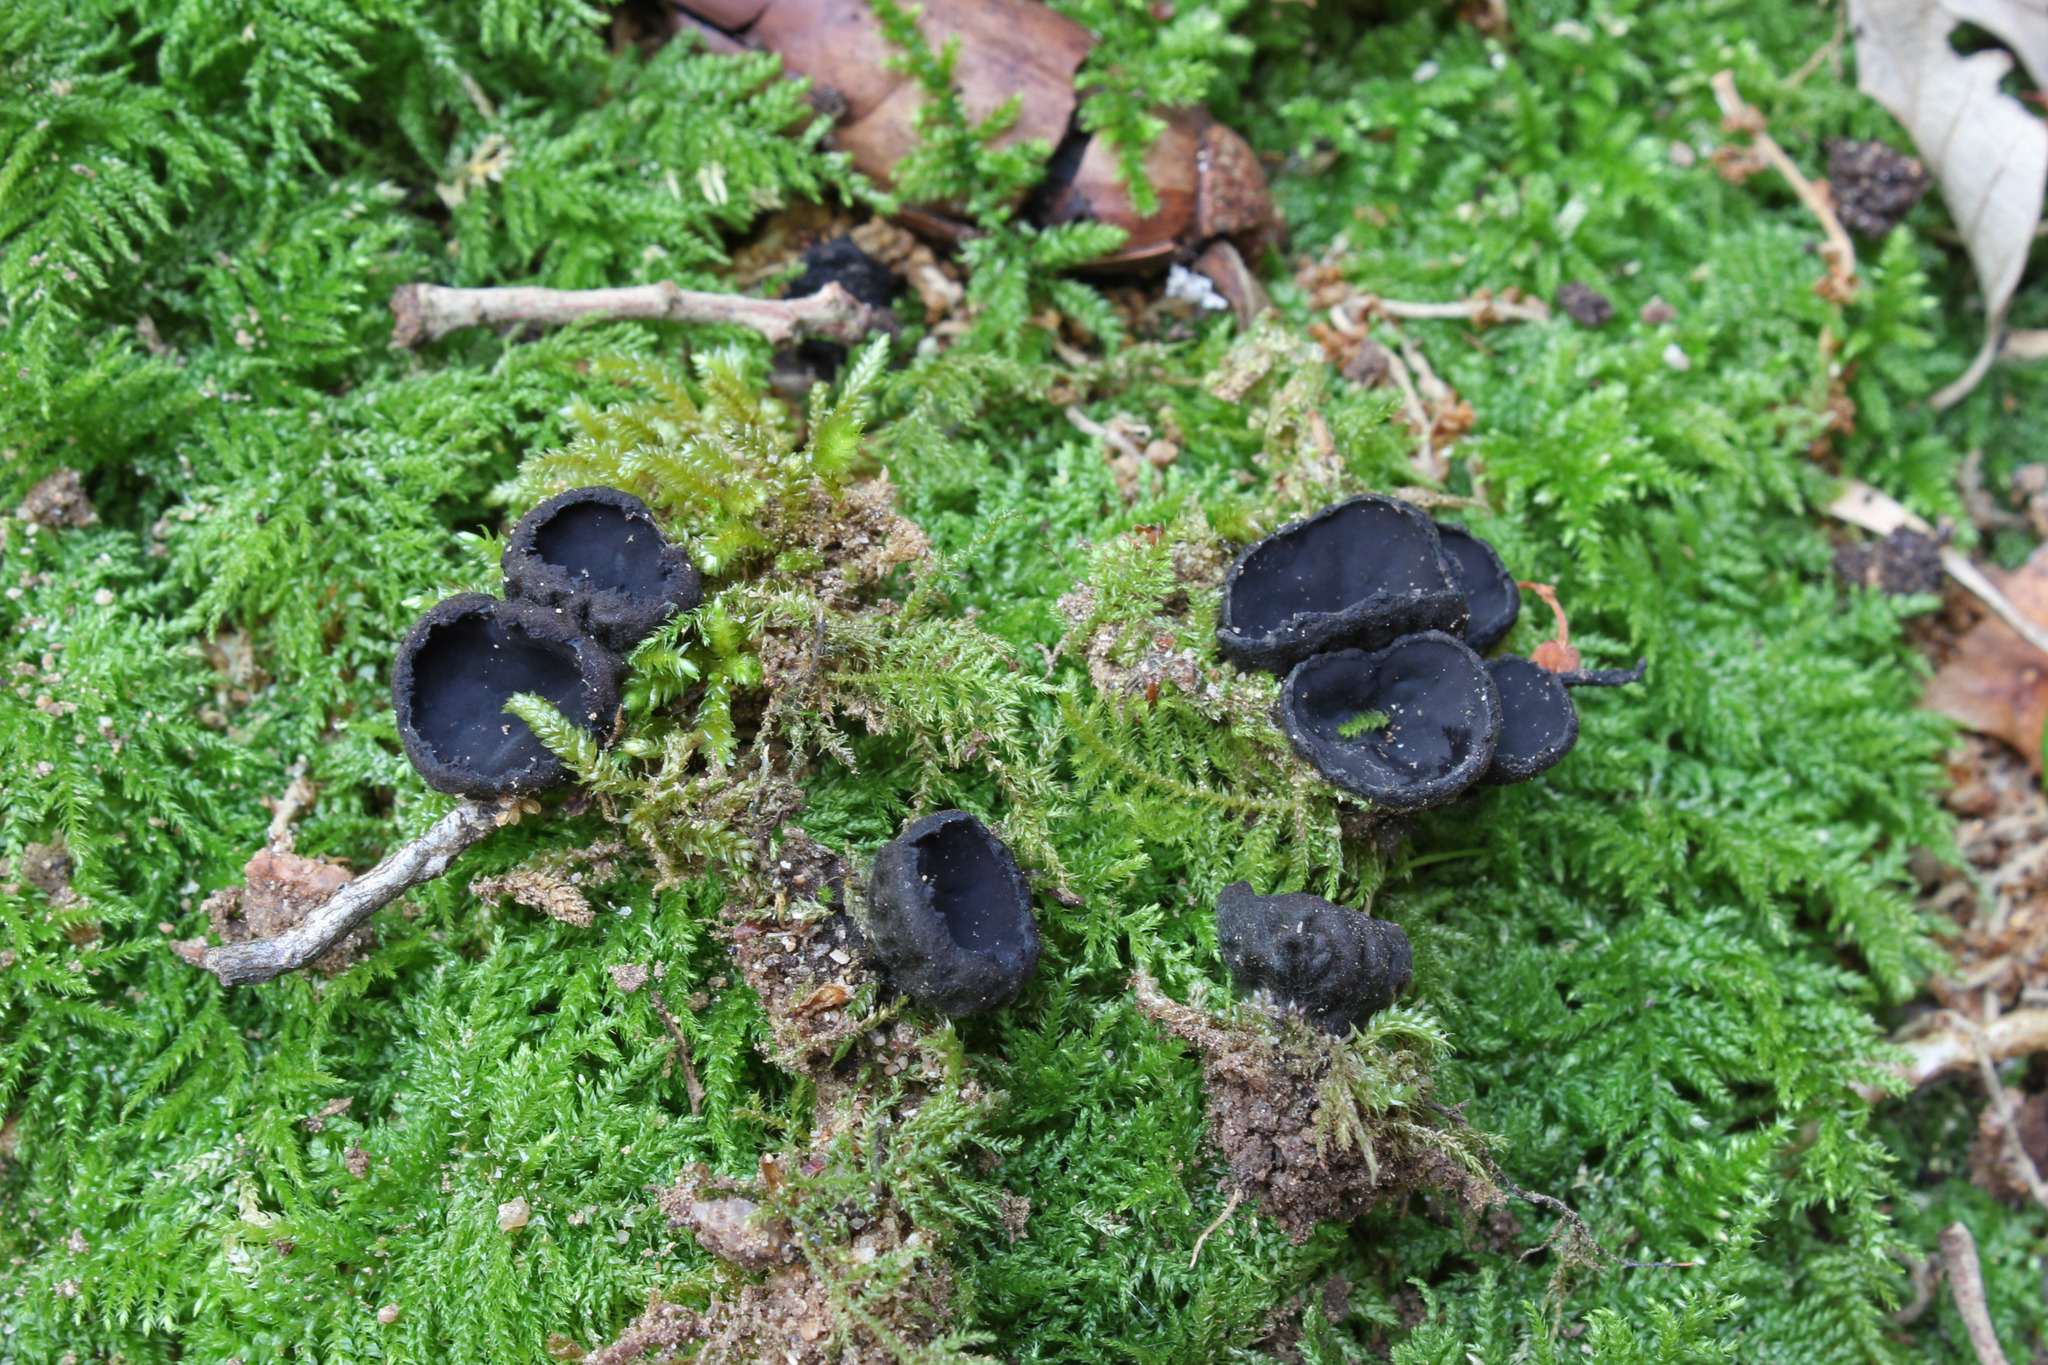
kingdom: Fungi
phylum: Ascomycota
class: Pezizomycetes
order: Pezizales
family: Sarcosomataceae
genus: Plectania
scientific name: Plectania rhytidia
